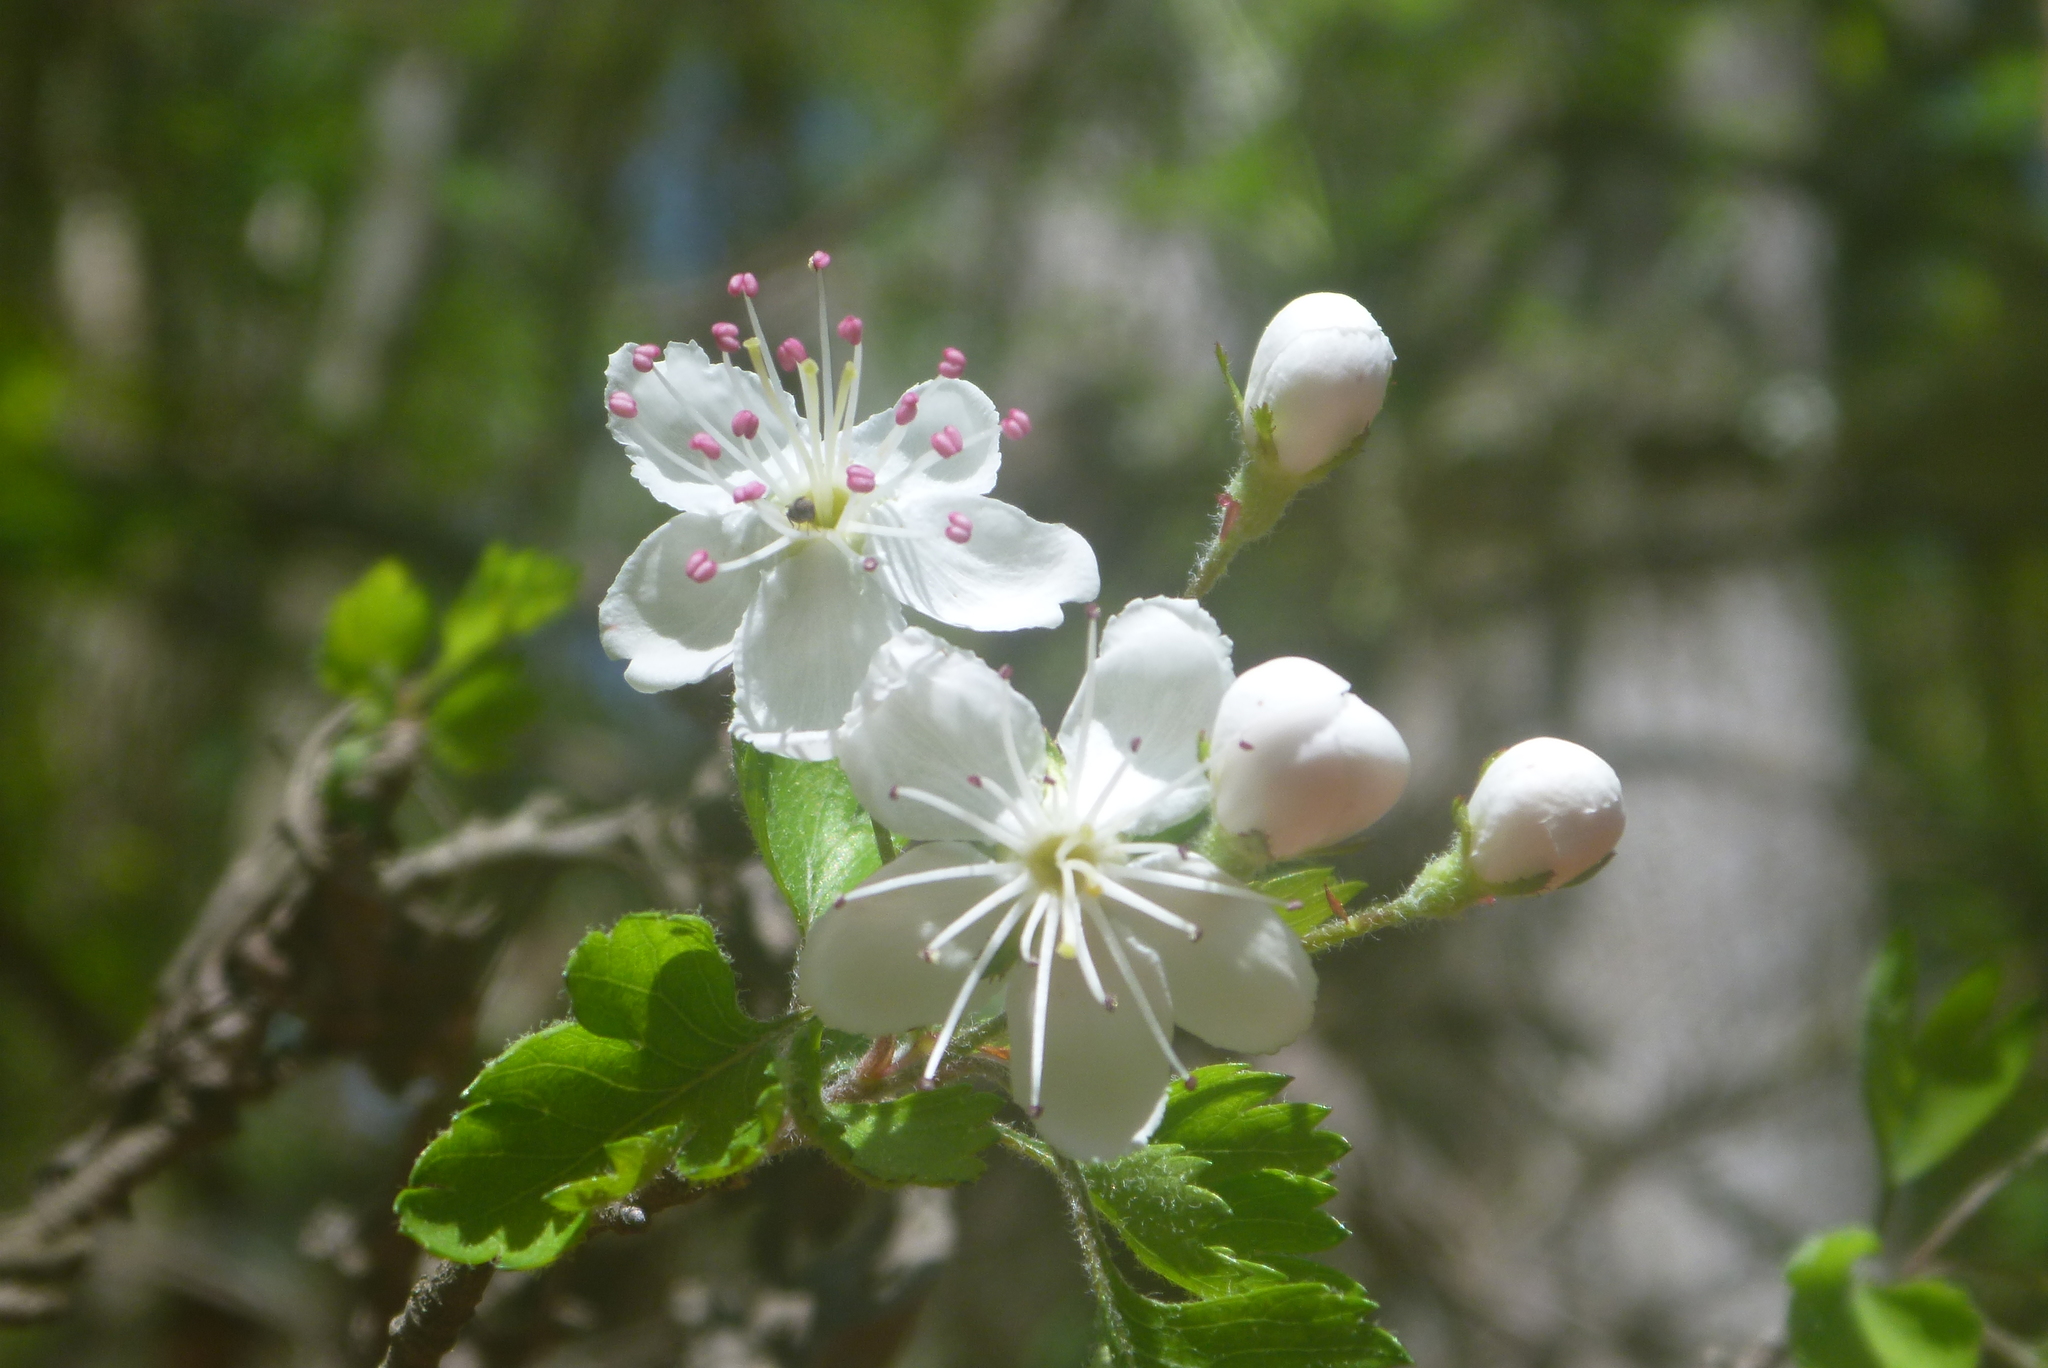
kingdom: Plantae
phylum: Tracheophyta
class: Magnoliopsida
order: Rosales
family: Rosaceae
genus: Crataegus
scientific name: Crataegus marshallii
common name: Parsley-hawthorn
